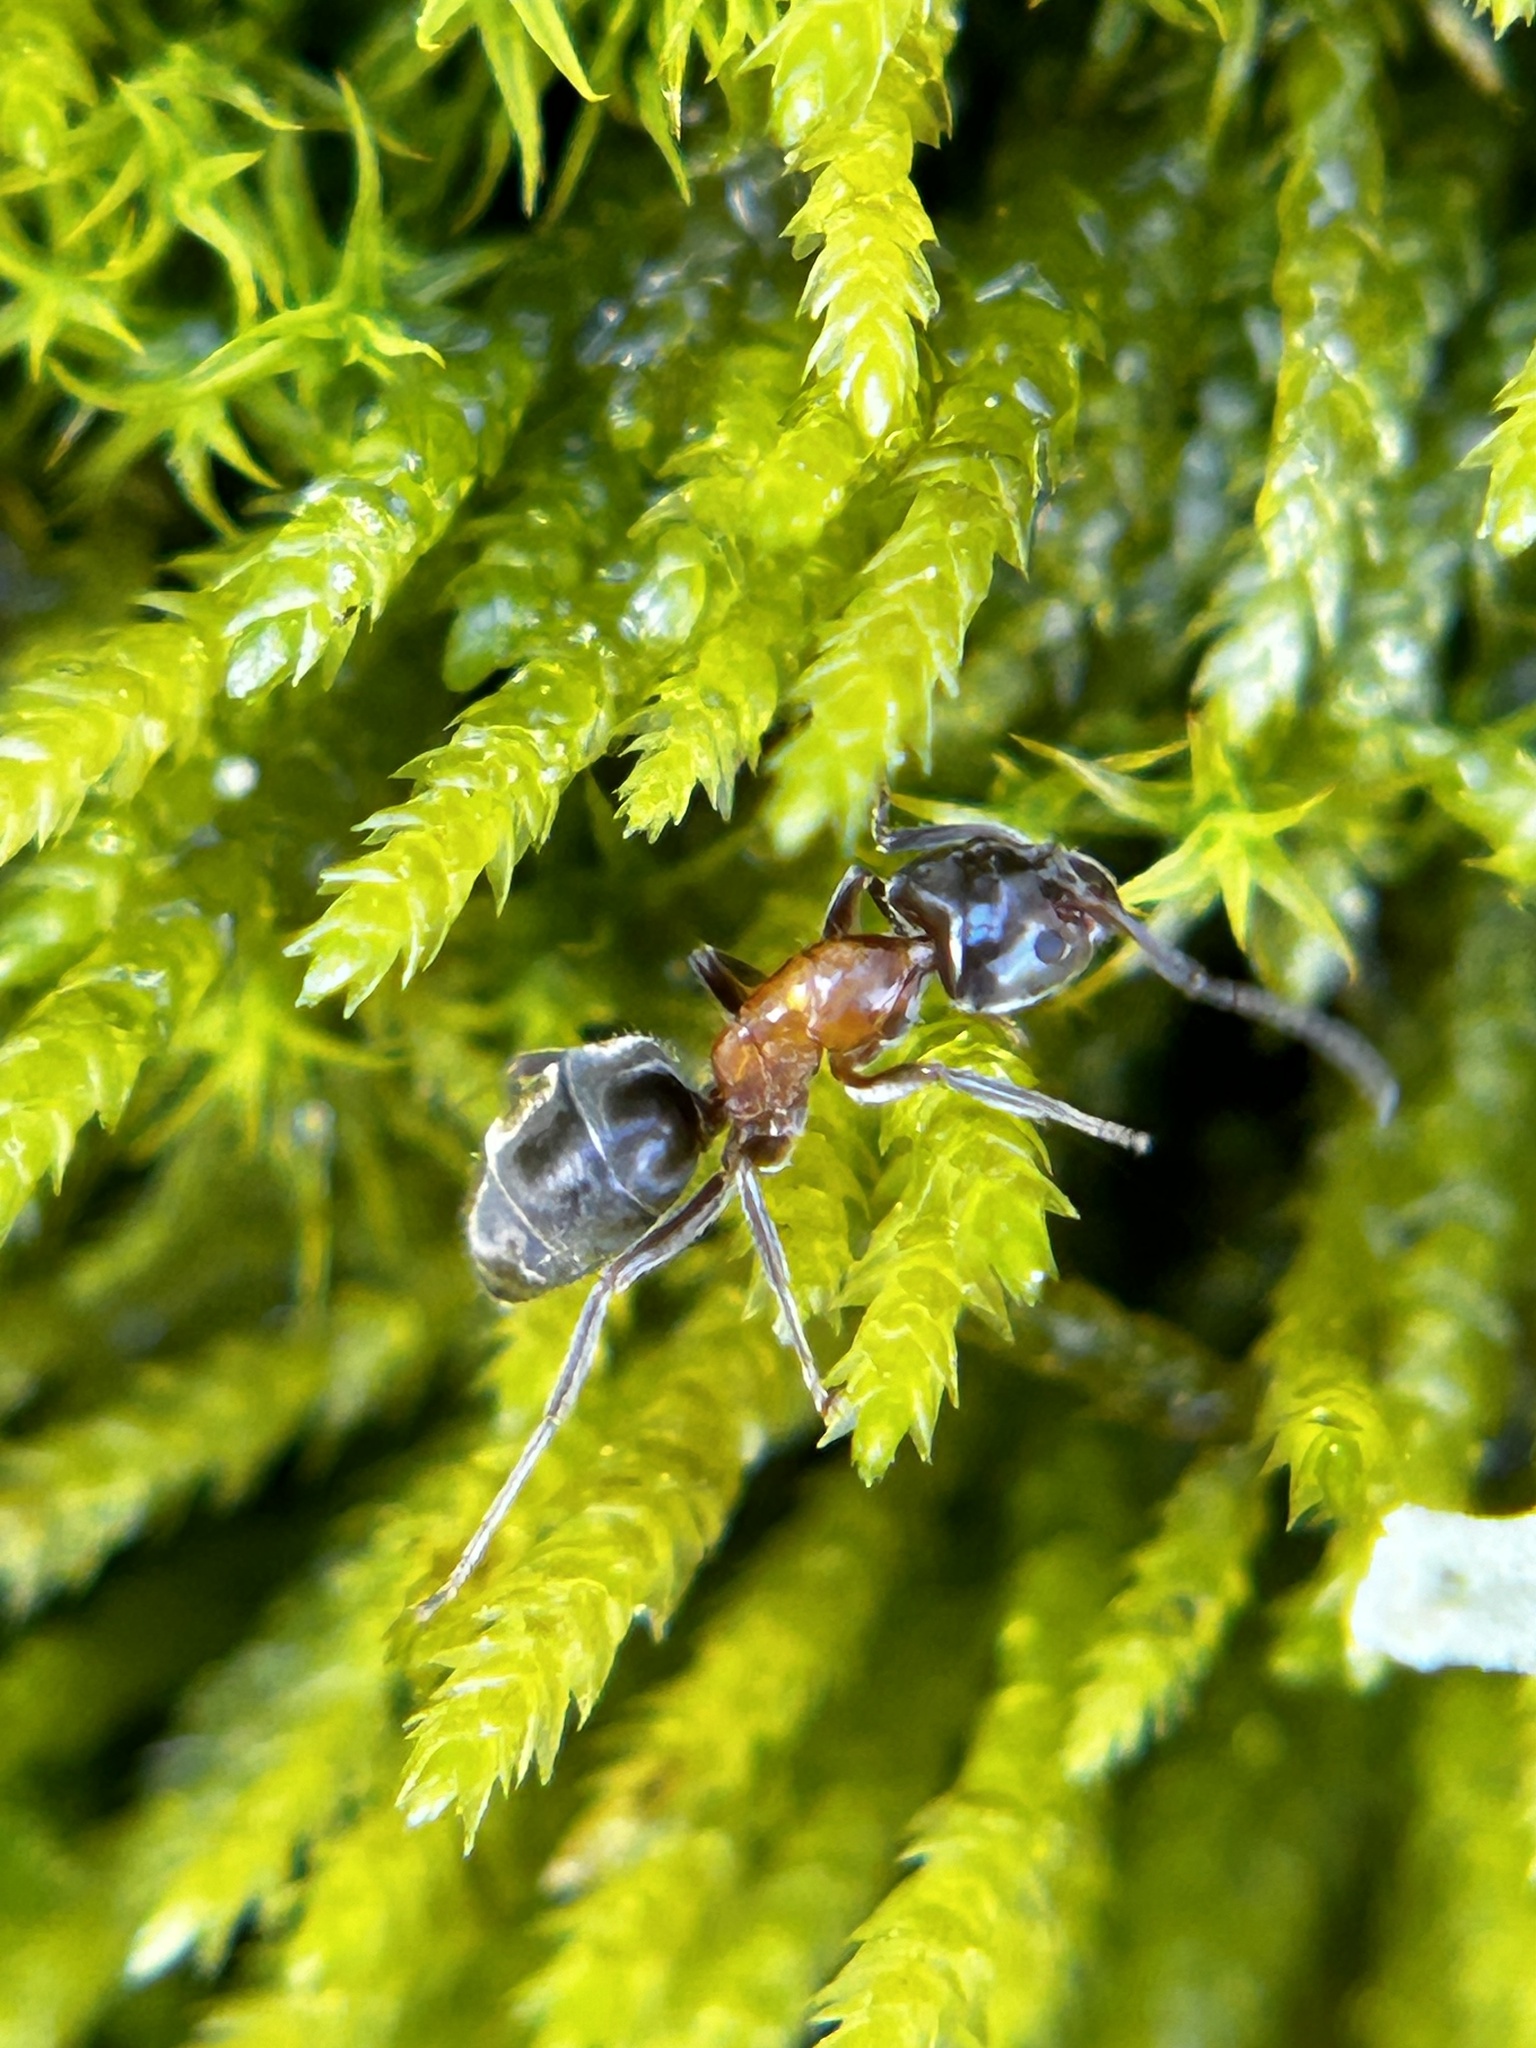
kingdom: Animalia
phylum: Arthropoda
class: Insecta
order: Hymenoptera
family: Formicidae
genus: Liometopum
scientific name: Liometopum occidentale
